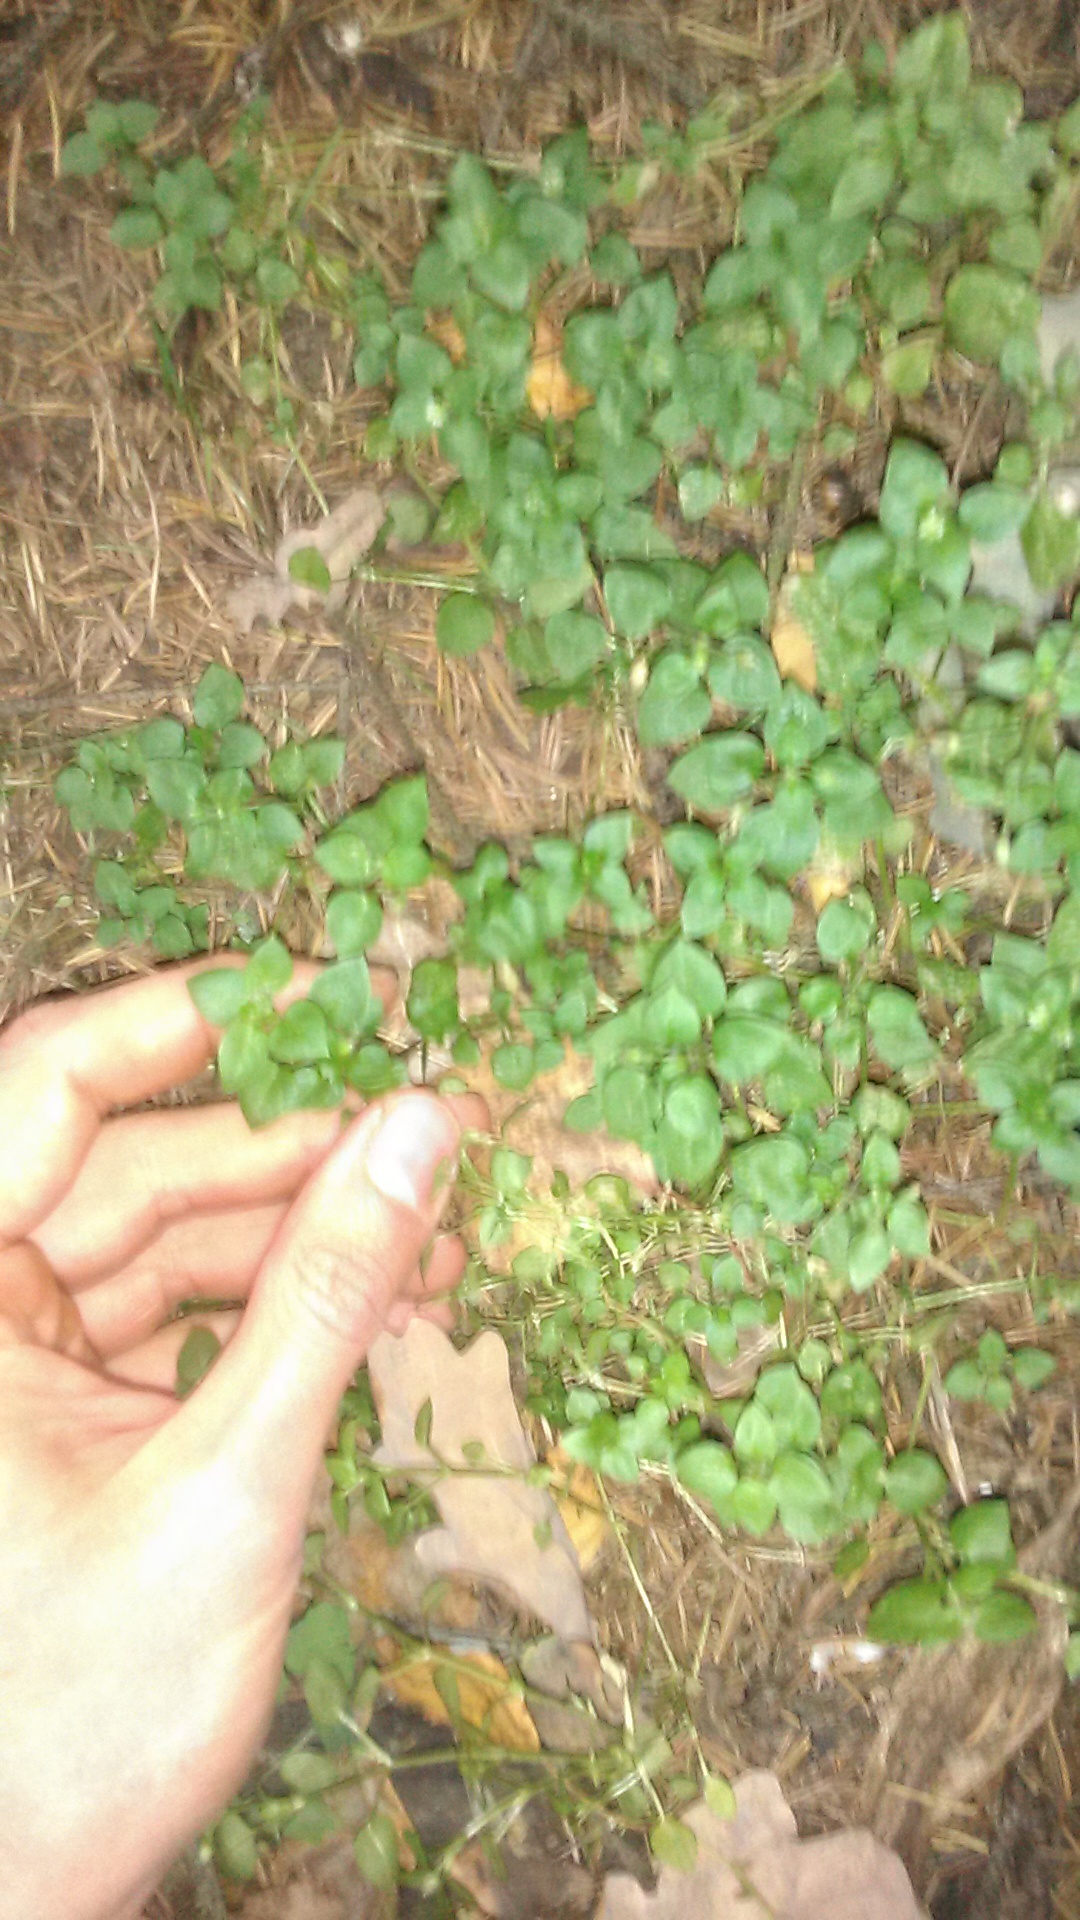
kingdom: Plantae
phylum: Tracheophyta
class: Magnoliopsida
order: Caryophyllales
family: Caryophyllaceae
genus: Stellaria
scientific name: Stellaria media
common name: Common chickweed
